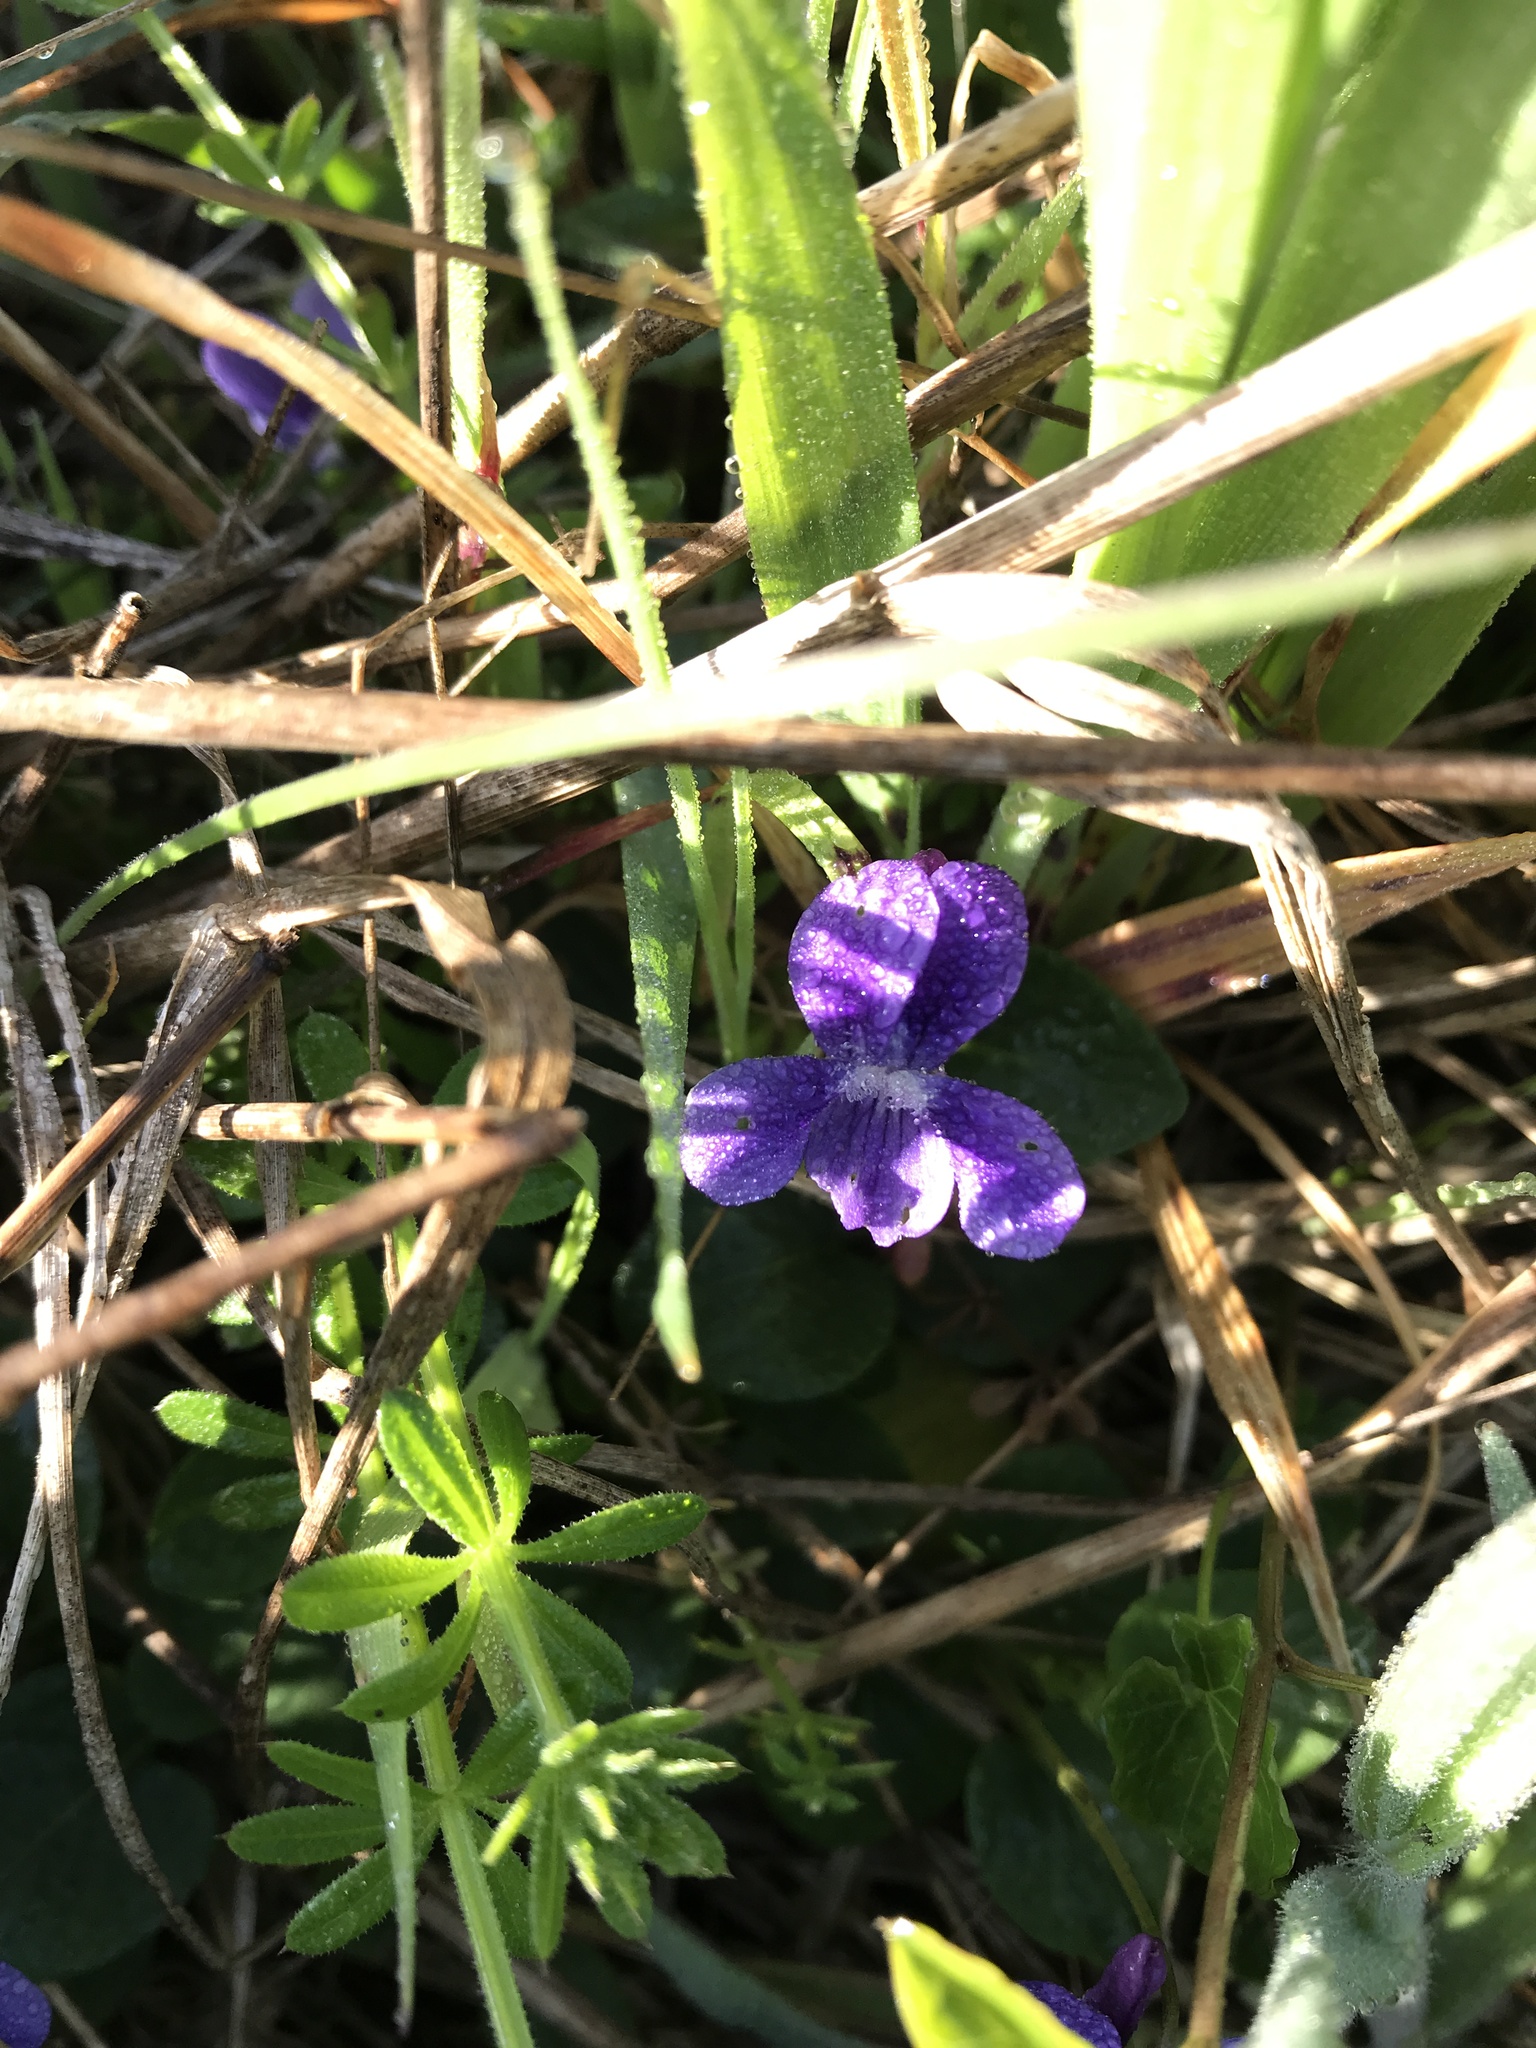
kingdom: Plantae
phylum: Tracheophyta
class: Magnoliopsida
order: Malpighiales
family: Violaceae
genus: Viola
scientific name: Viola adunca
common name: Sand violet
